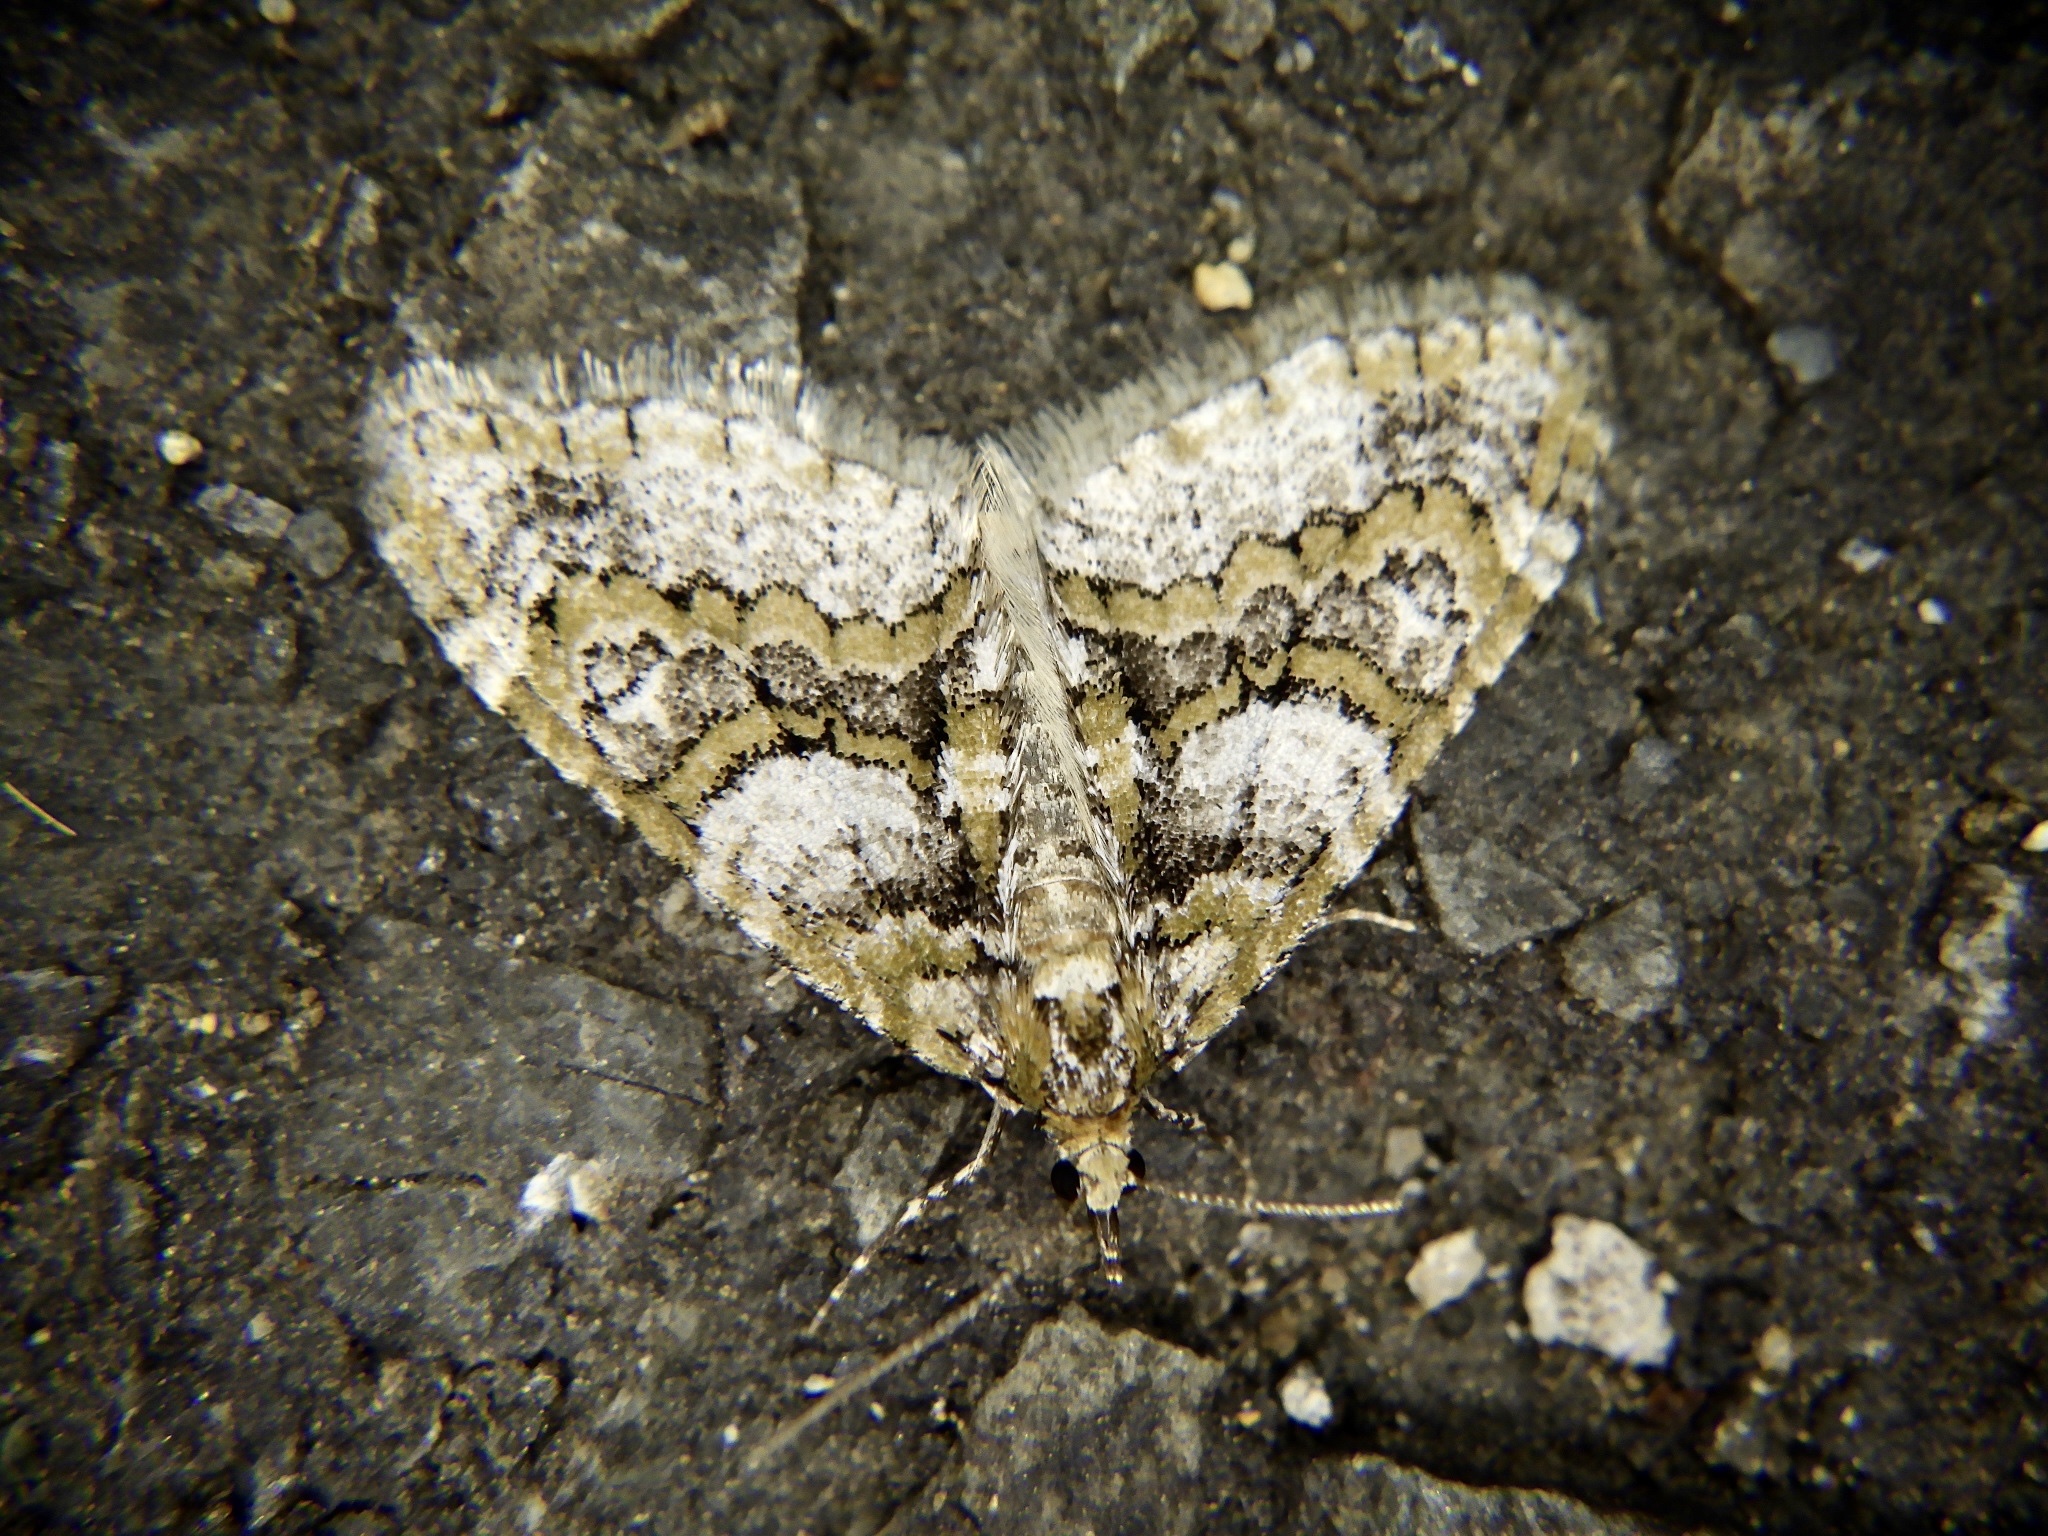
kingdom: Animalia
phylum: Arthropoda
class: Insecta
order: Lepidoptera
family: Geometridae
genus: Esakiopteryx
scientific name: Esakiopteryx volitans
